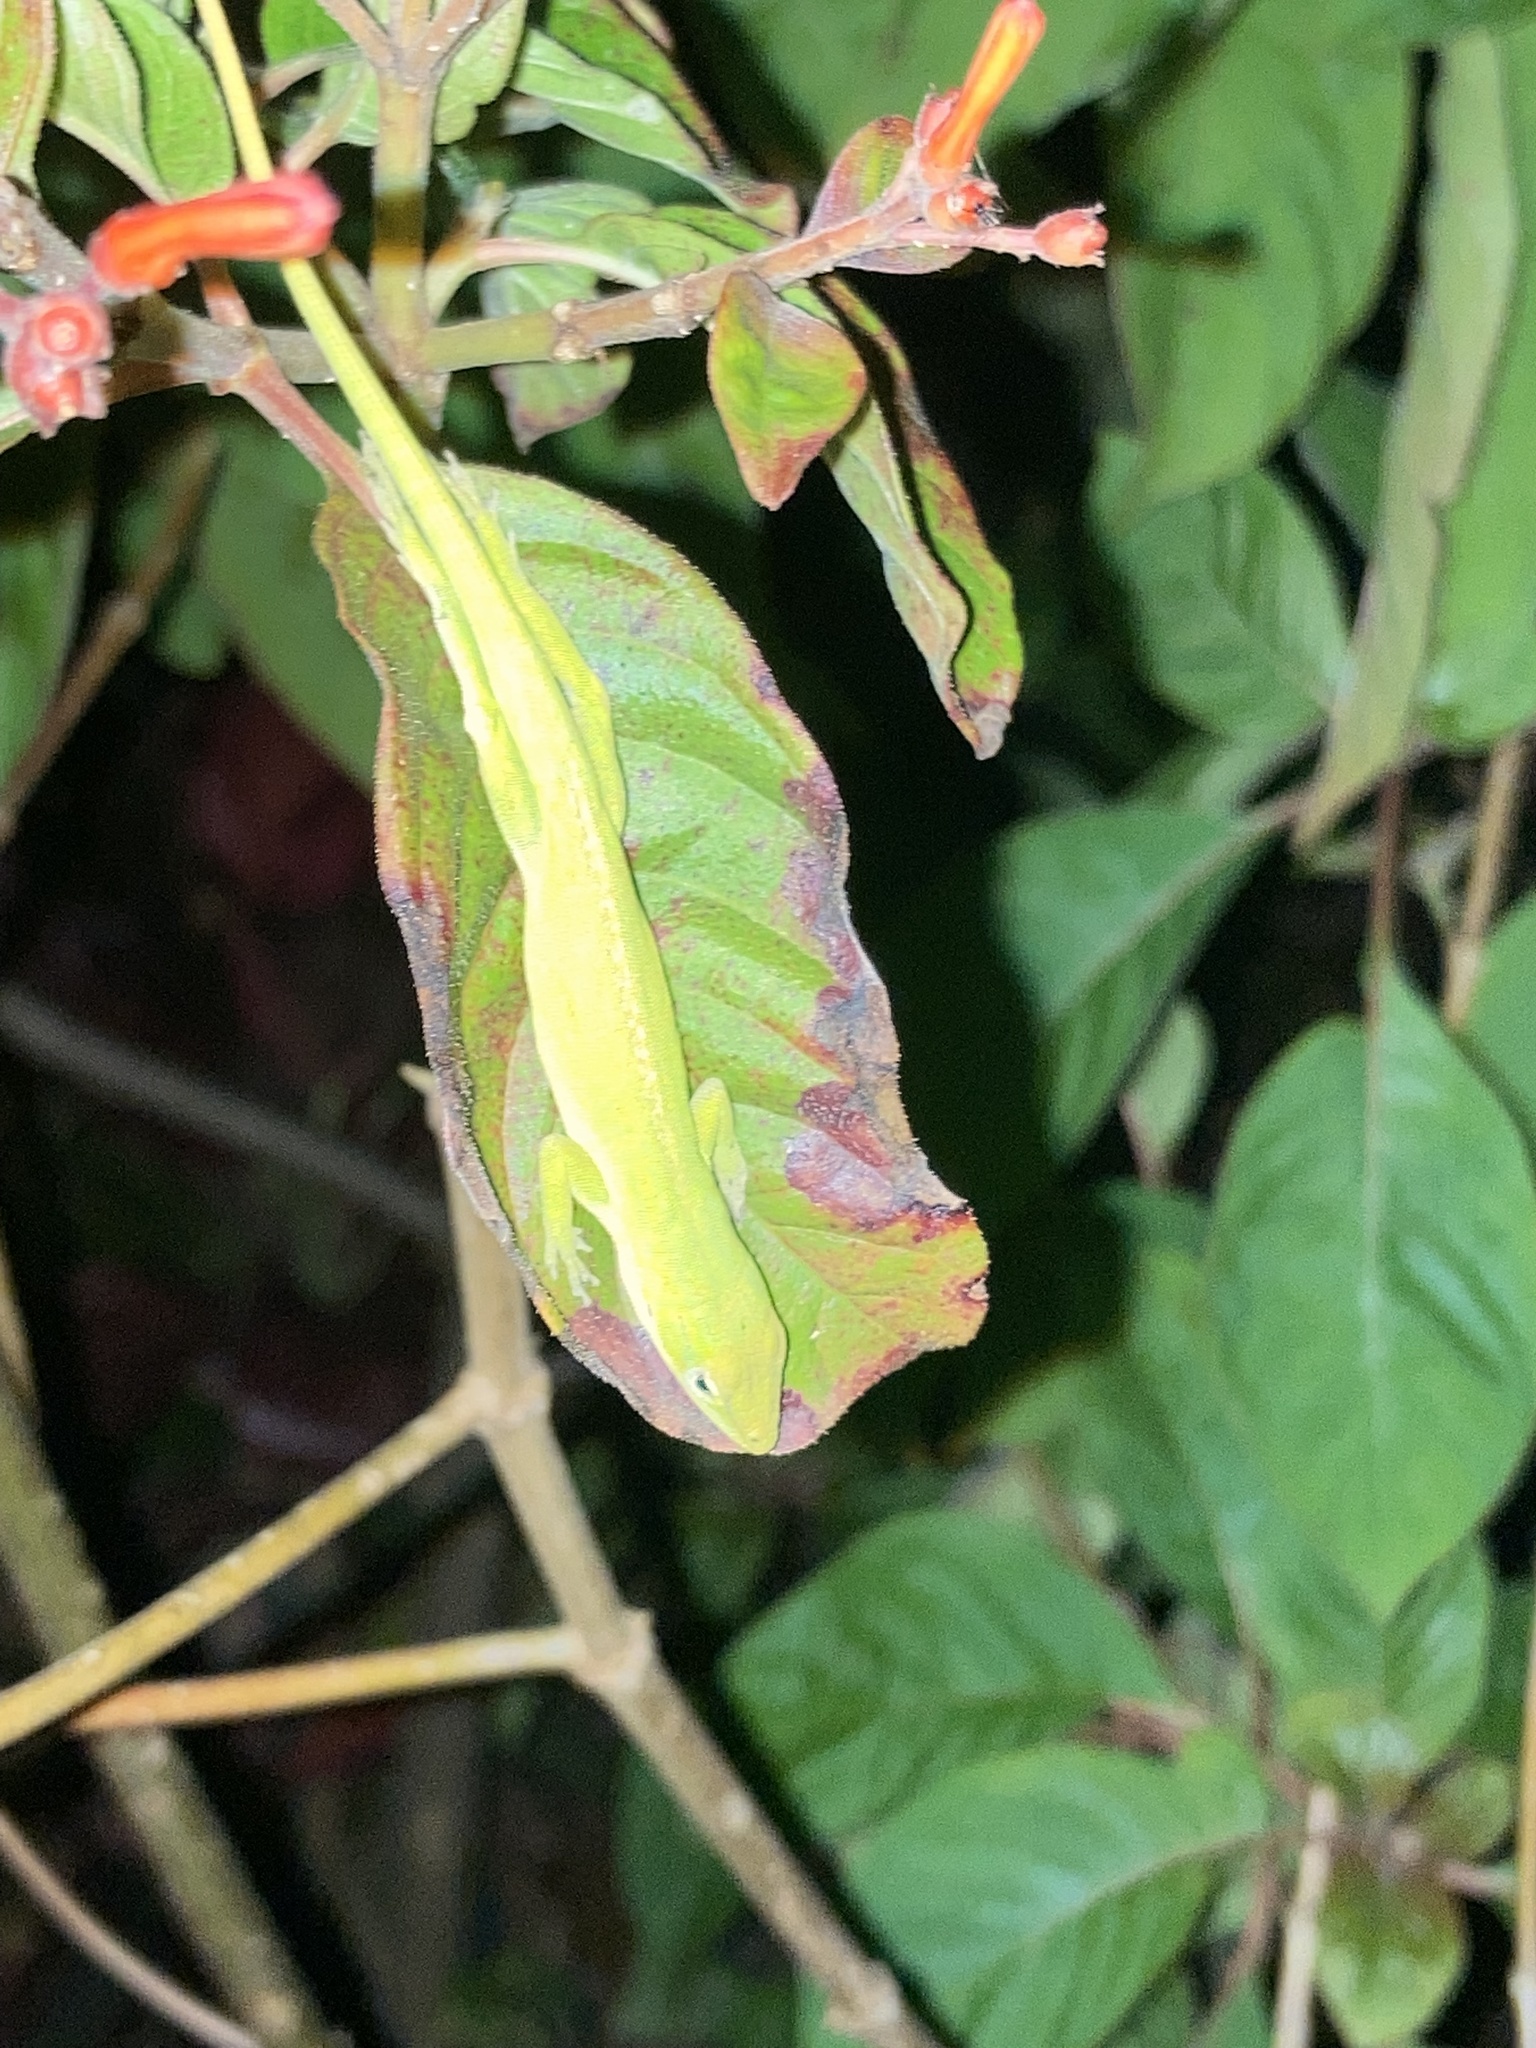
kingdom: Animalia
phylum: Chordata
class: Squamata
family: Dactyloidae
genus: Anolis
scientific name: Anolis carolinensis
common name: Green anole
